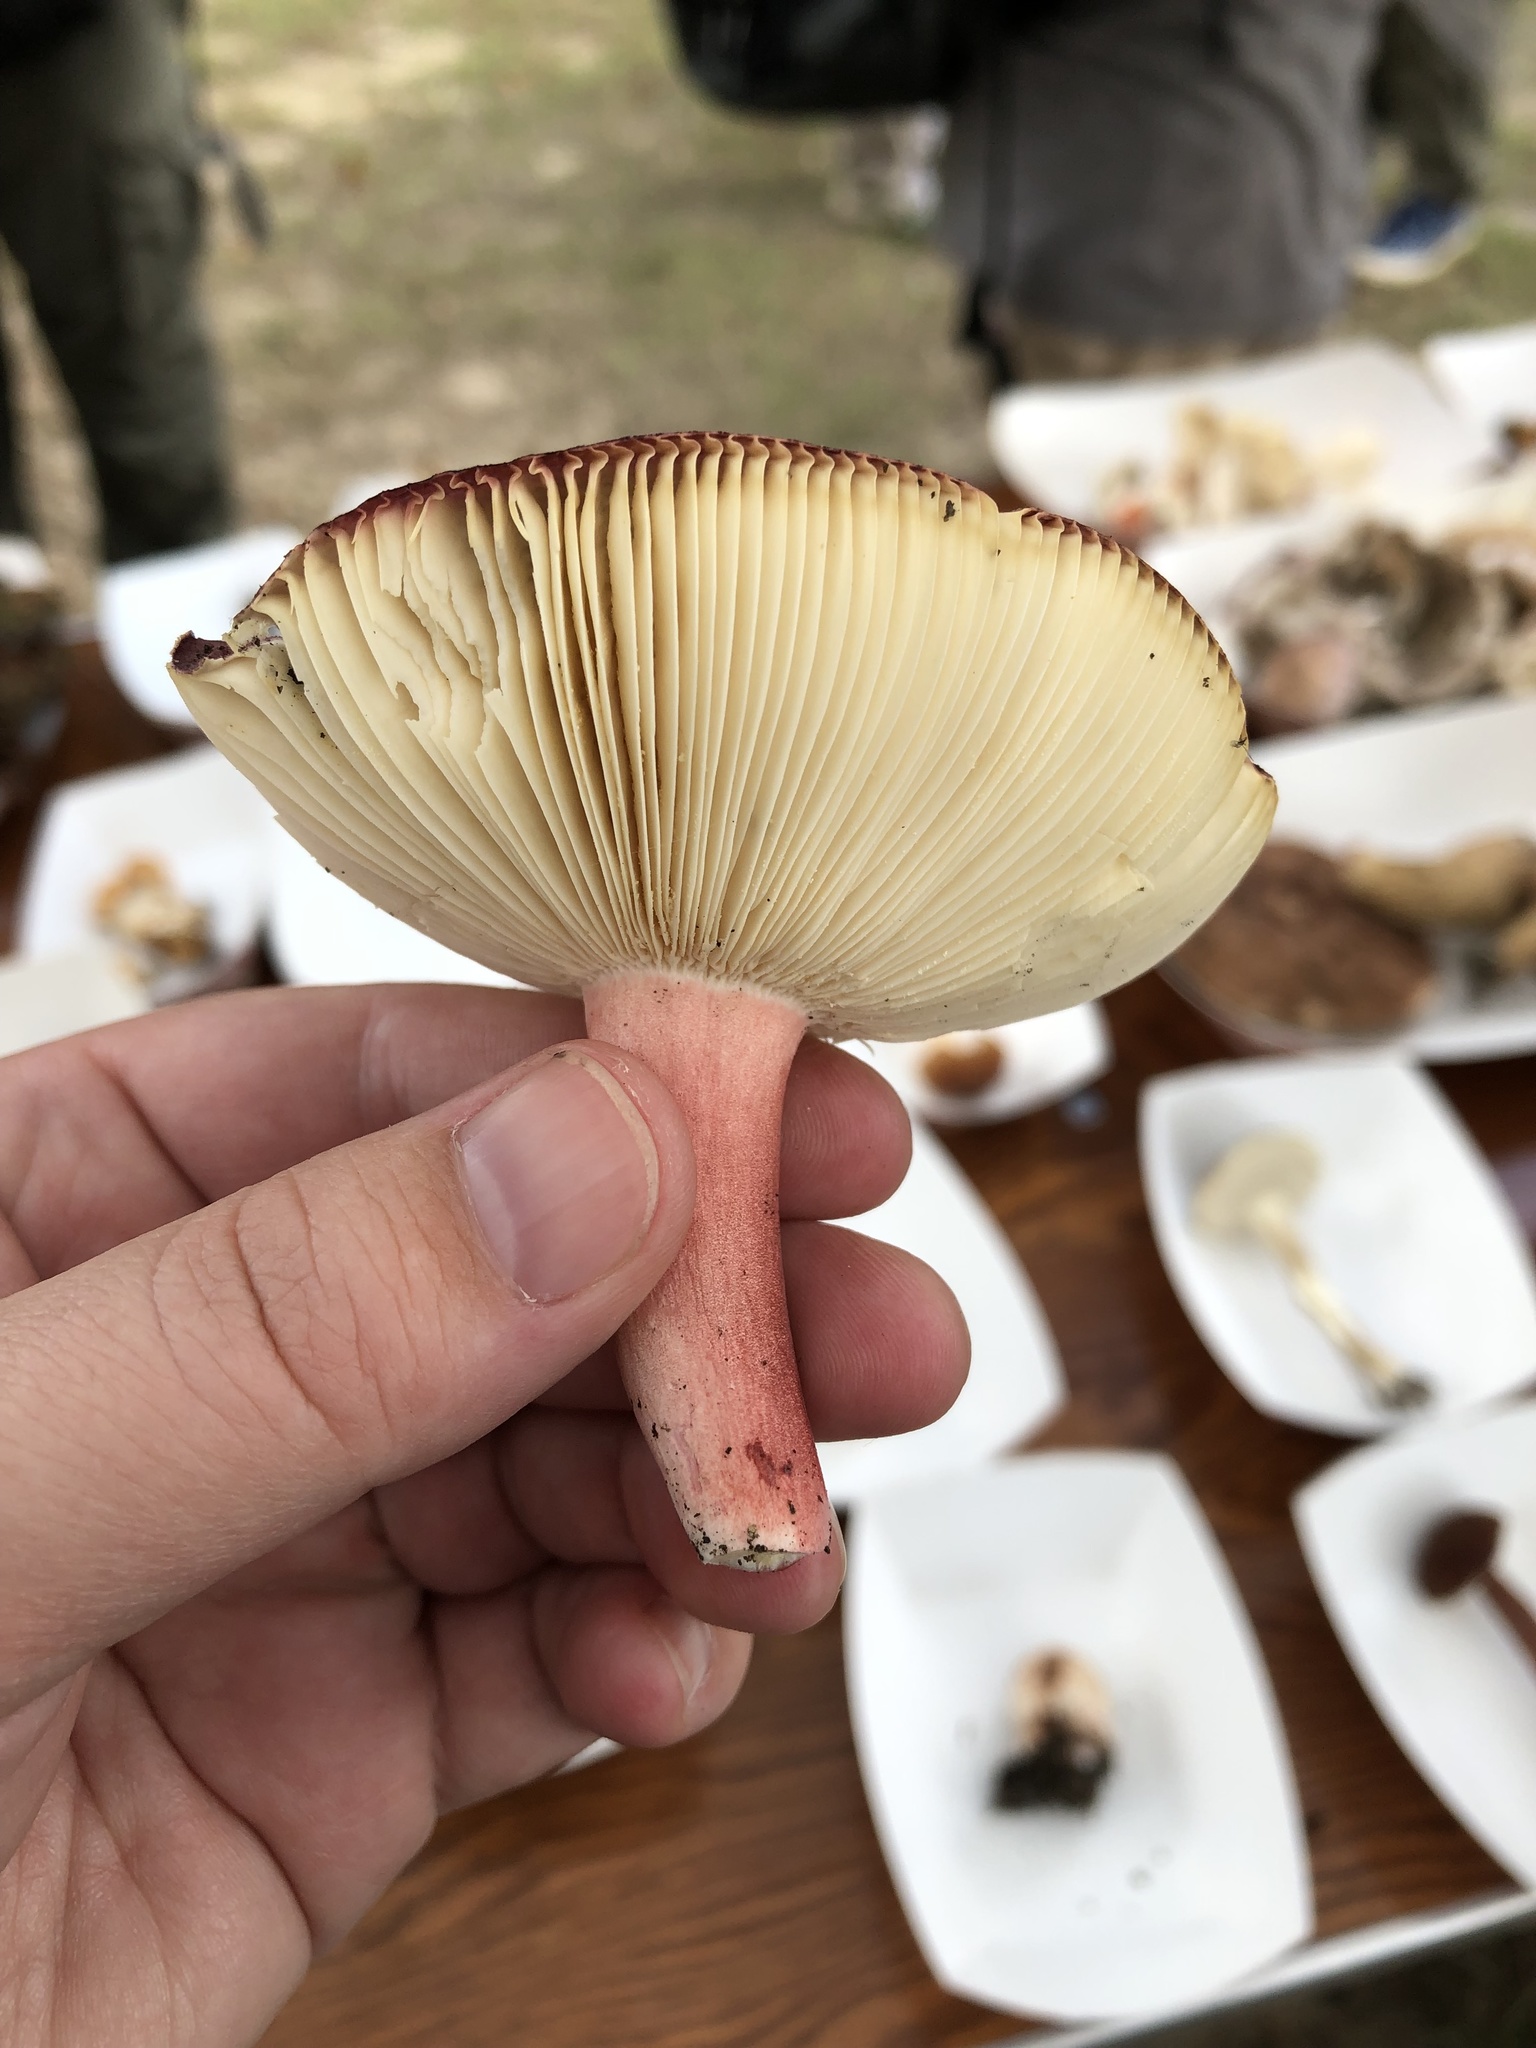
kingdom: Fungi
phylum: Basidiomycota
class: Agaricomycetes
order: Russulales
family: Russulaceae
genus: Russula
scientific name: Russula mariae
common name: Purple-bloom russula
